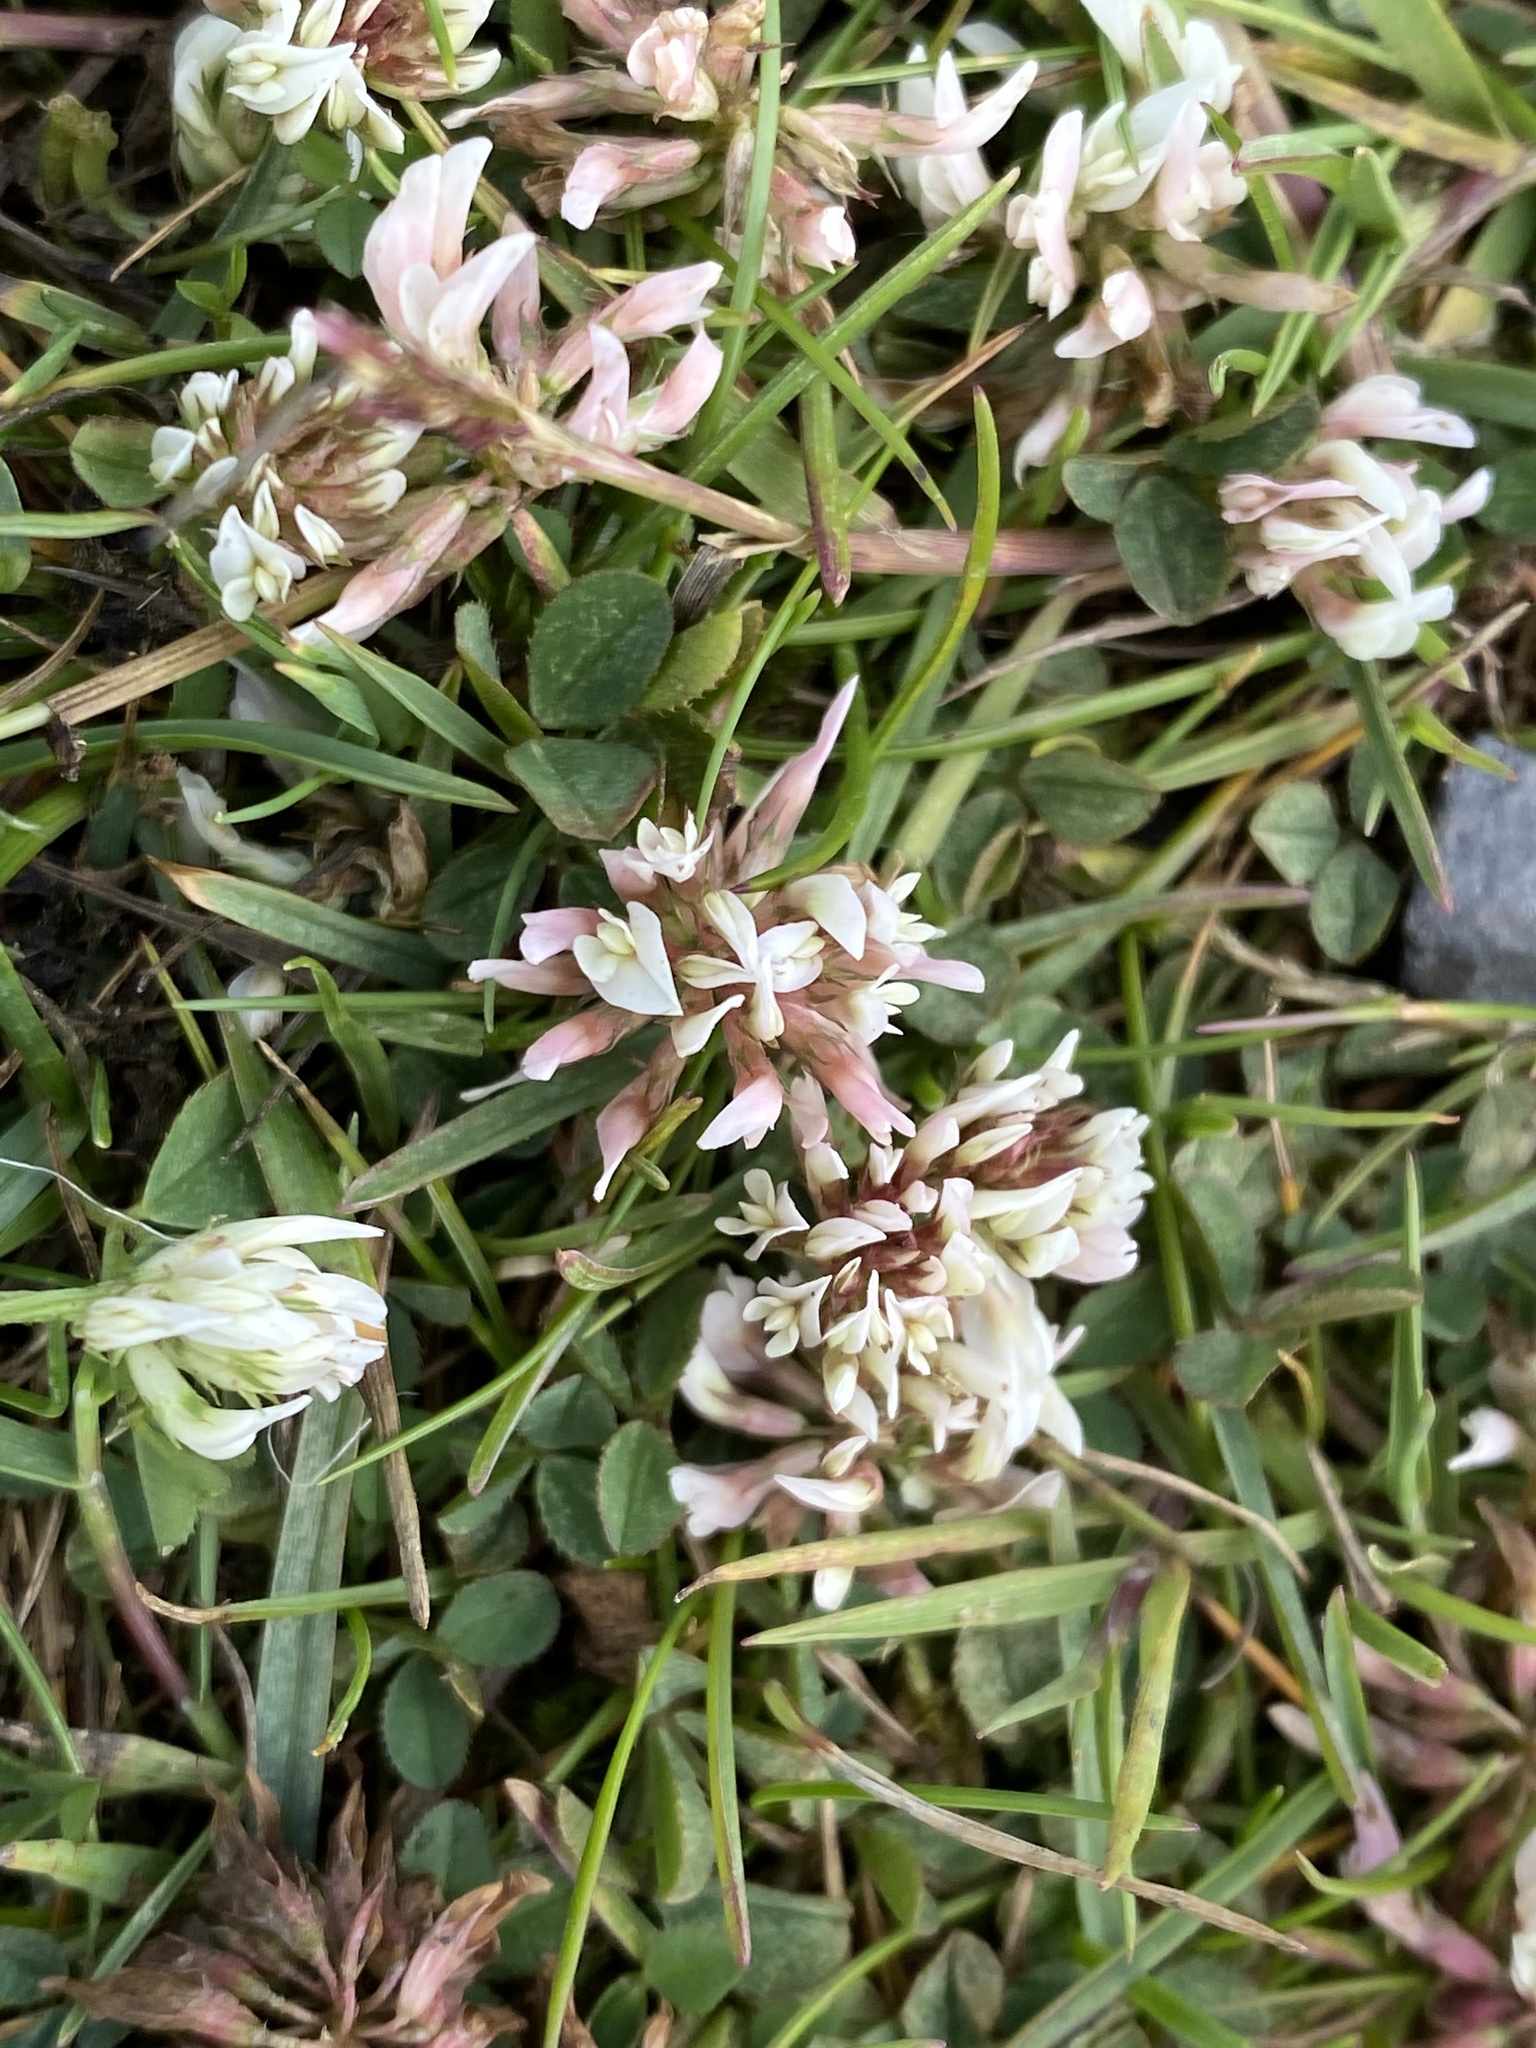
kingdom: Plantae
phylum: Tracheophyta
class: Magnoliopsida
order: Fabales
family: Fabaceae
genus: Trifolium
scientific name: Trifolium repens
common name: White clover
